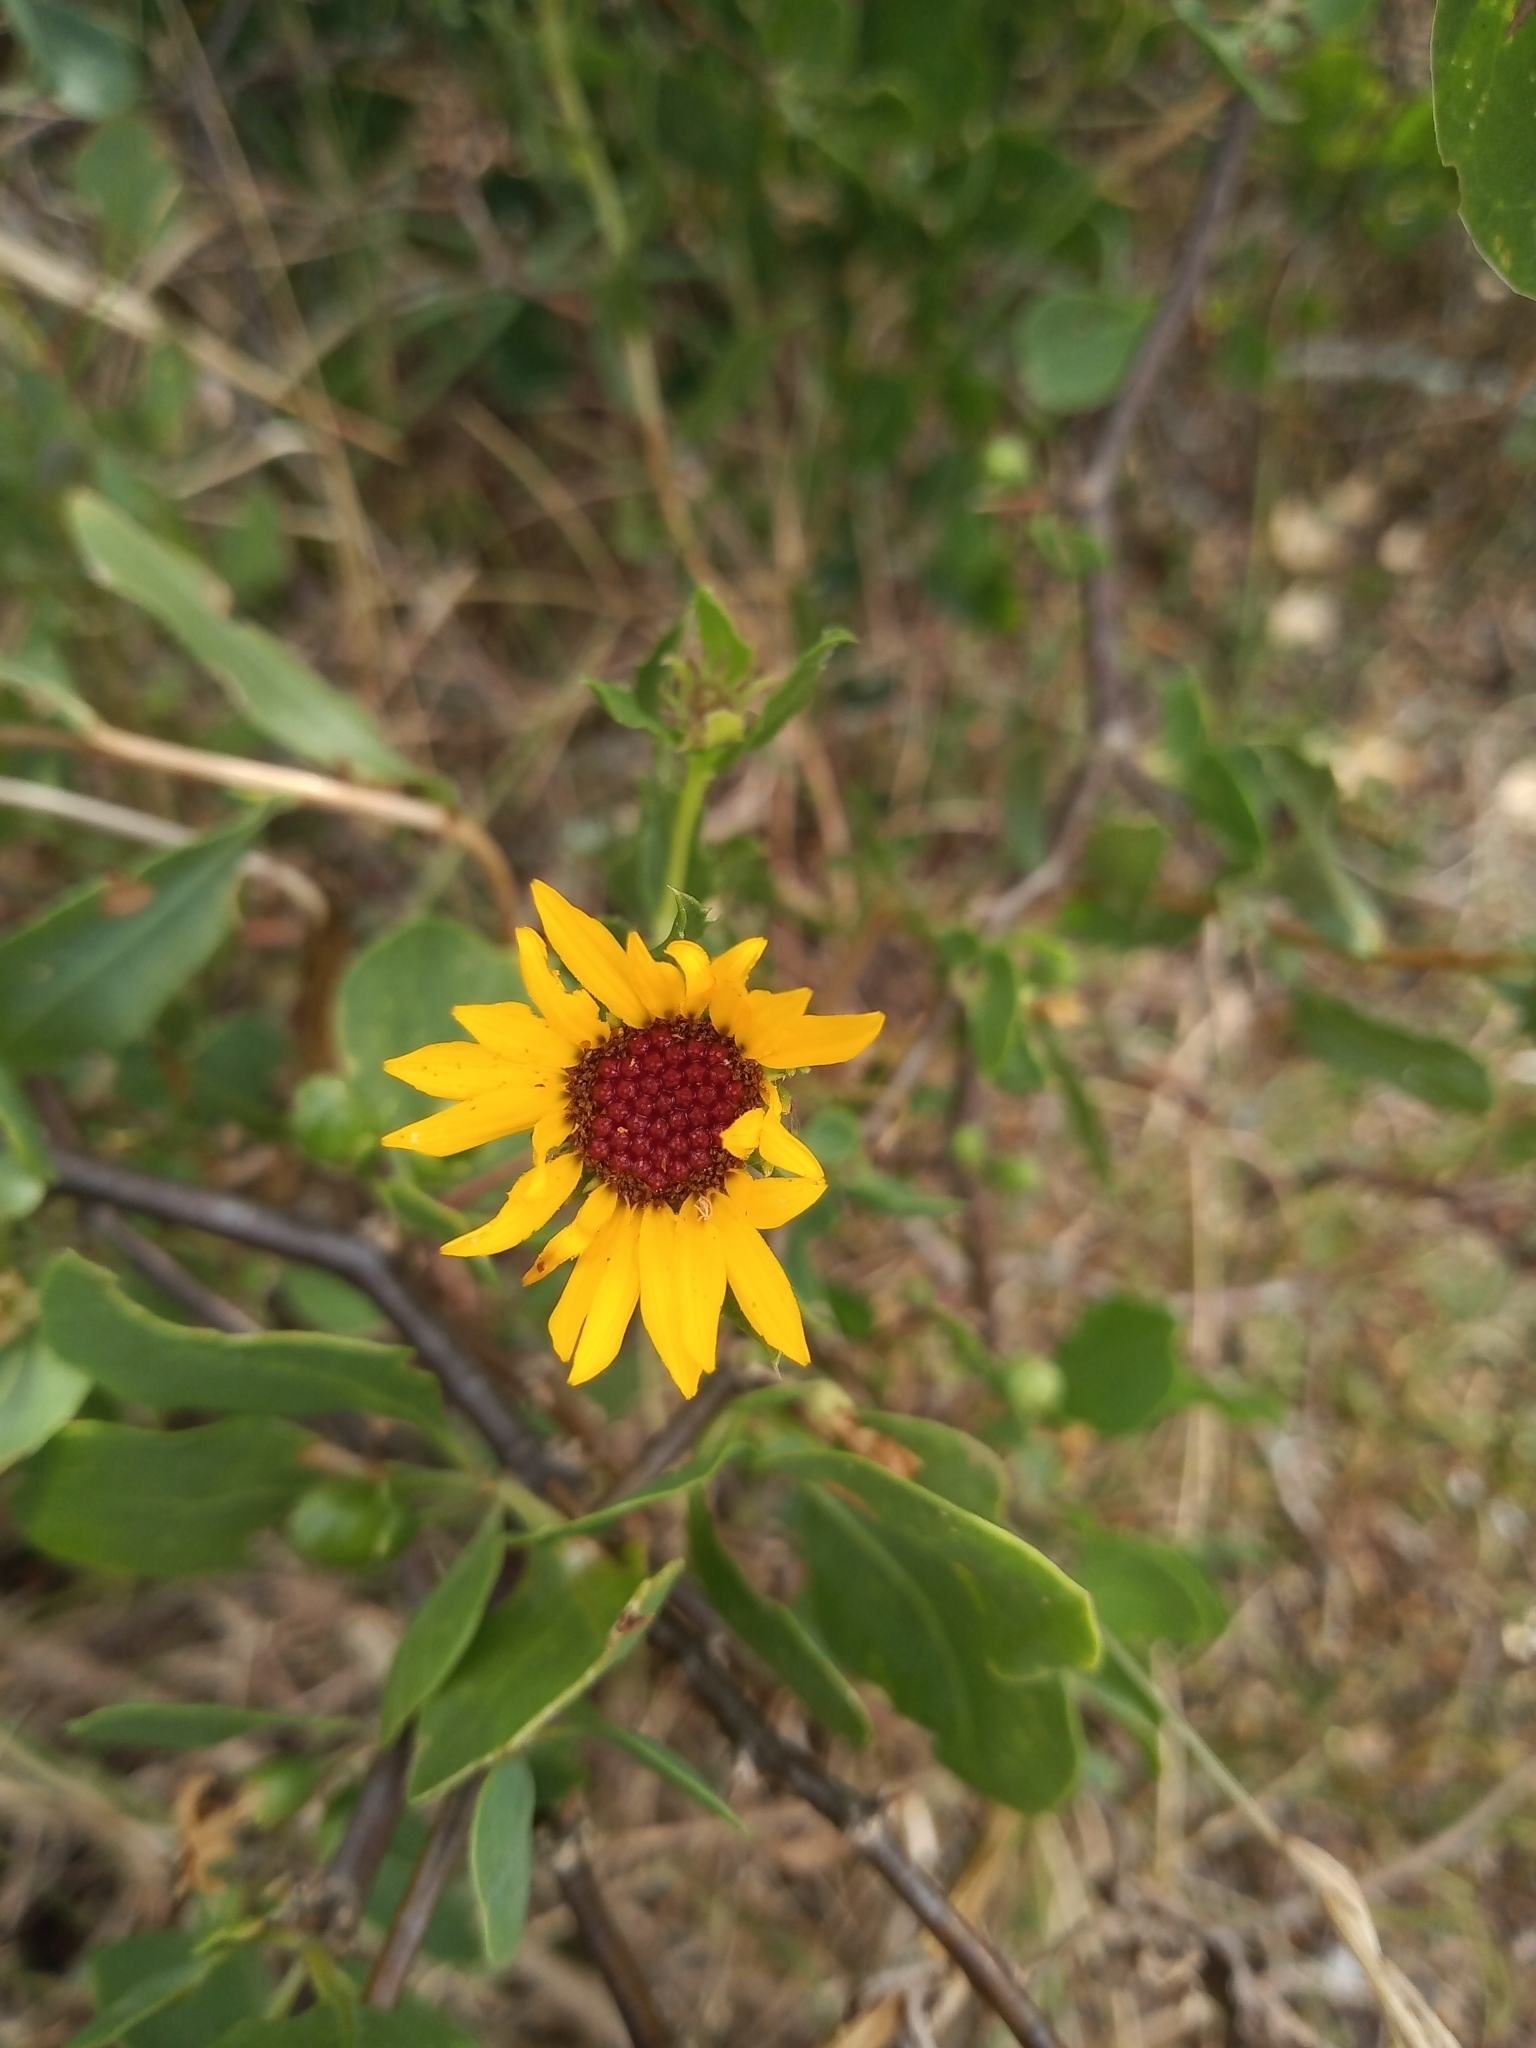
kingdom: Plantae
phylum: Tracheophyta
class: Magnoliopsida
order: Asterales
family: Asteraceae
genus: Grindelia
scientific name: Grindelia pulchella
